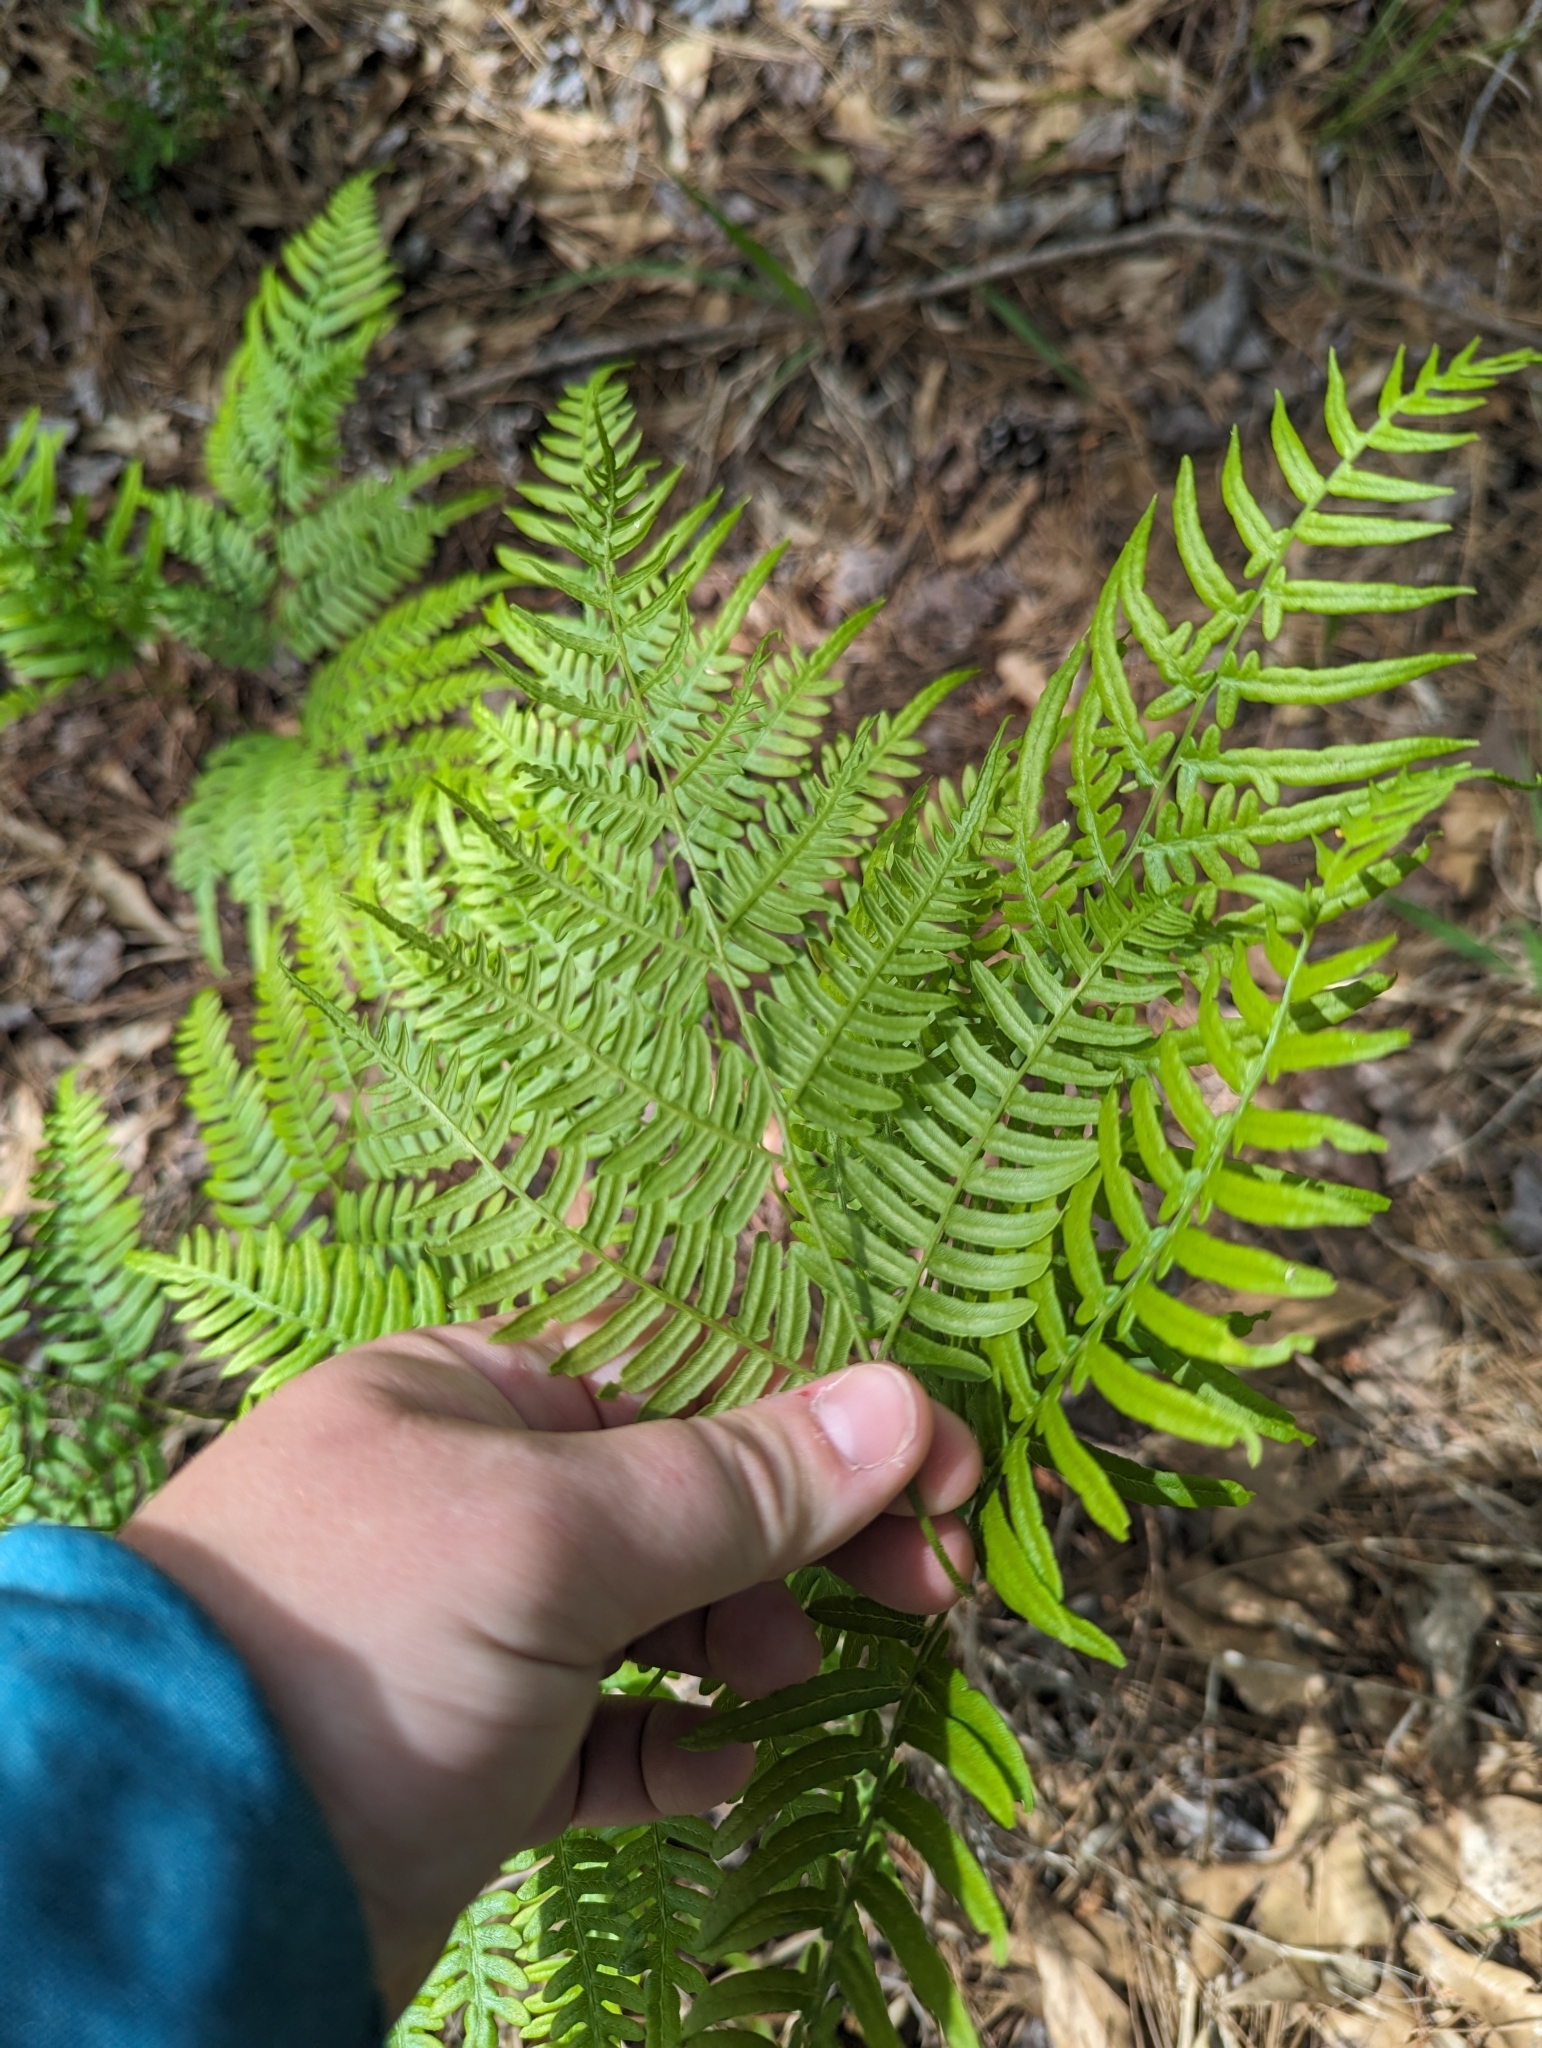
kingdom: Plantae
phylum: Tracheophyta
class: Polypodiopsida
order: Polypodiales
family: Dennstaedtiaceae
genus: Pteridium
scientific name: Pteridium
